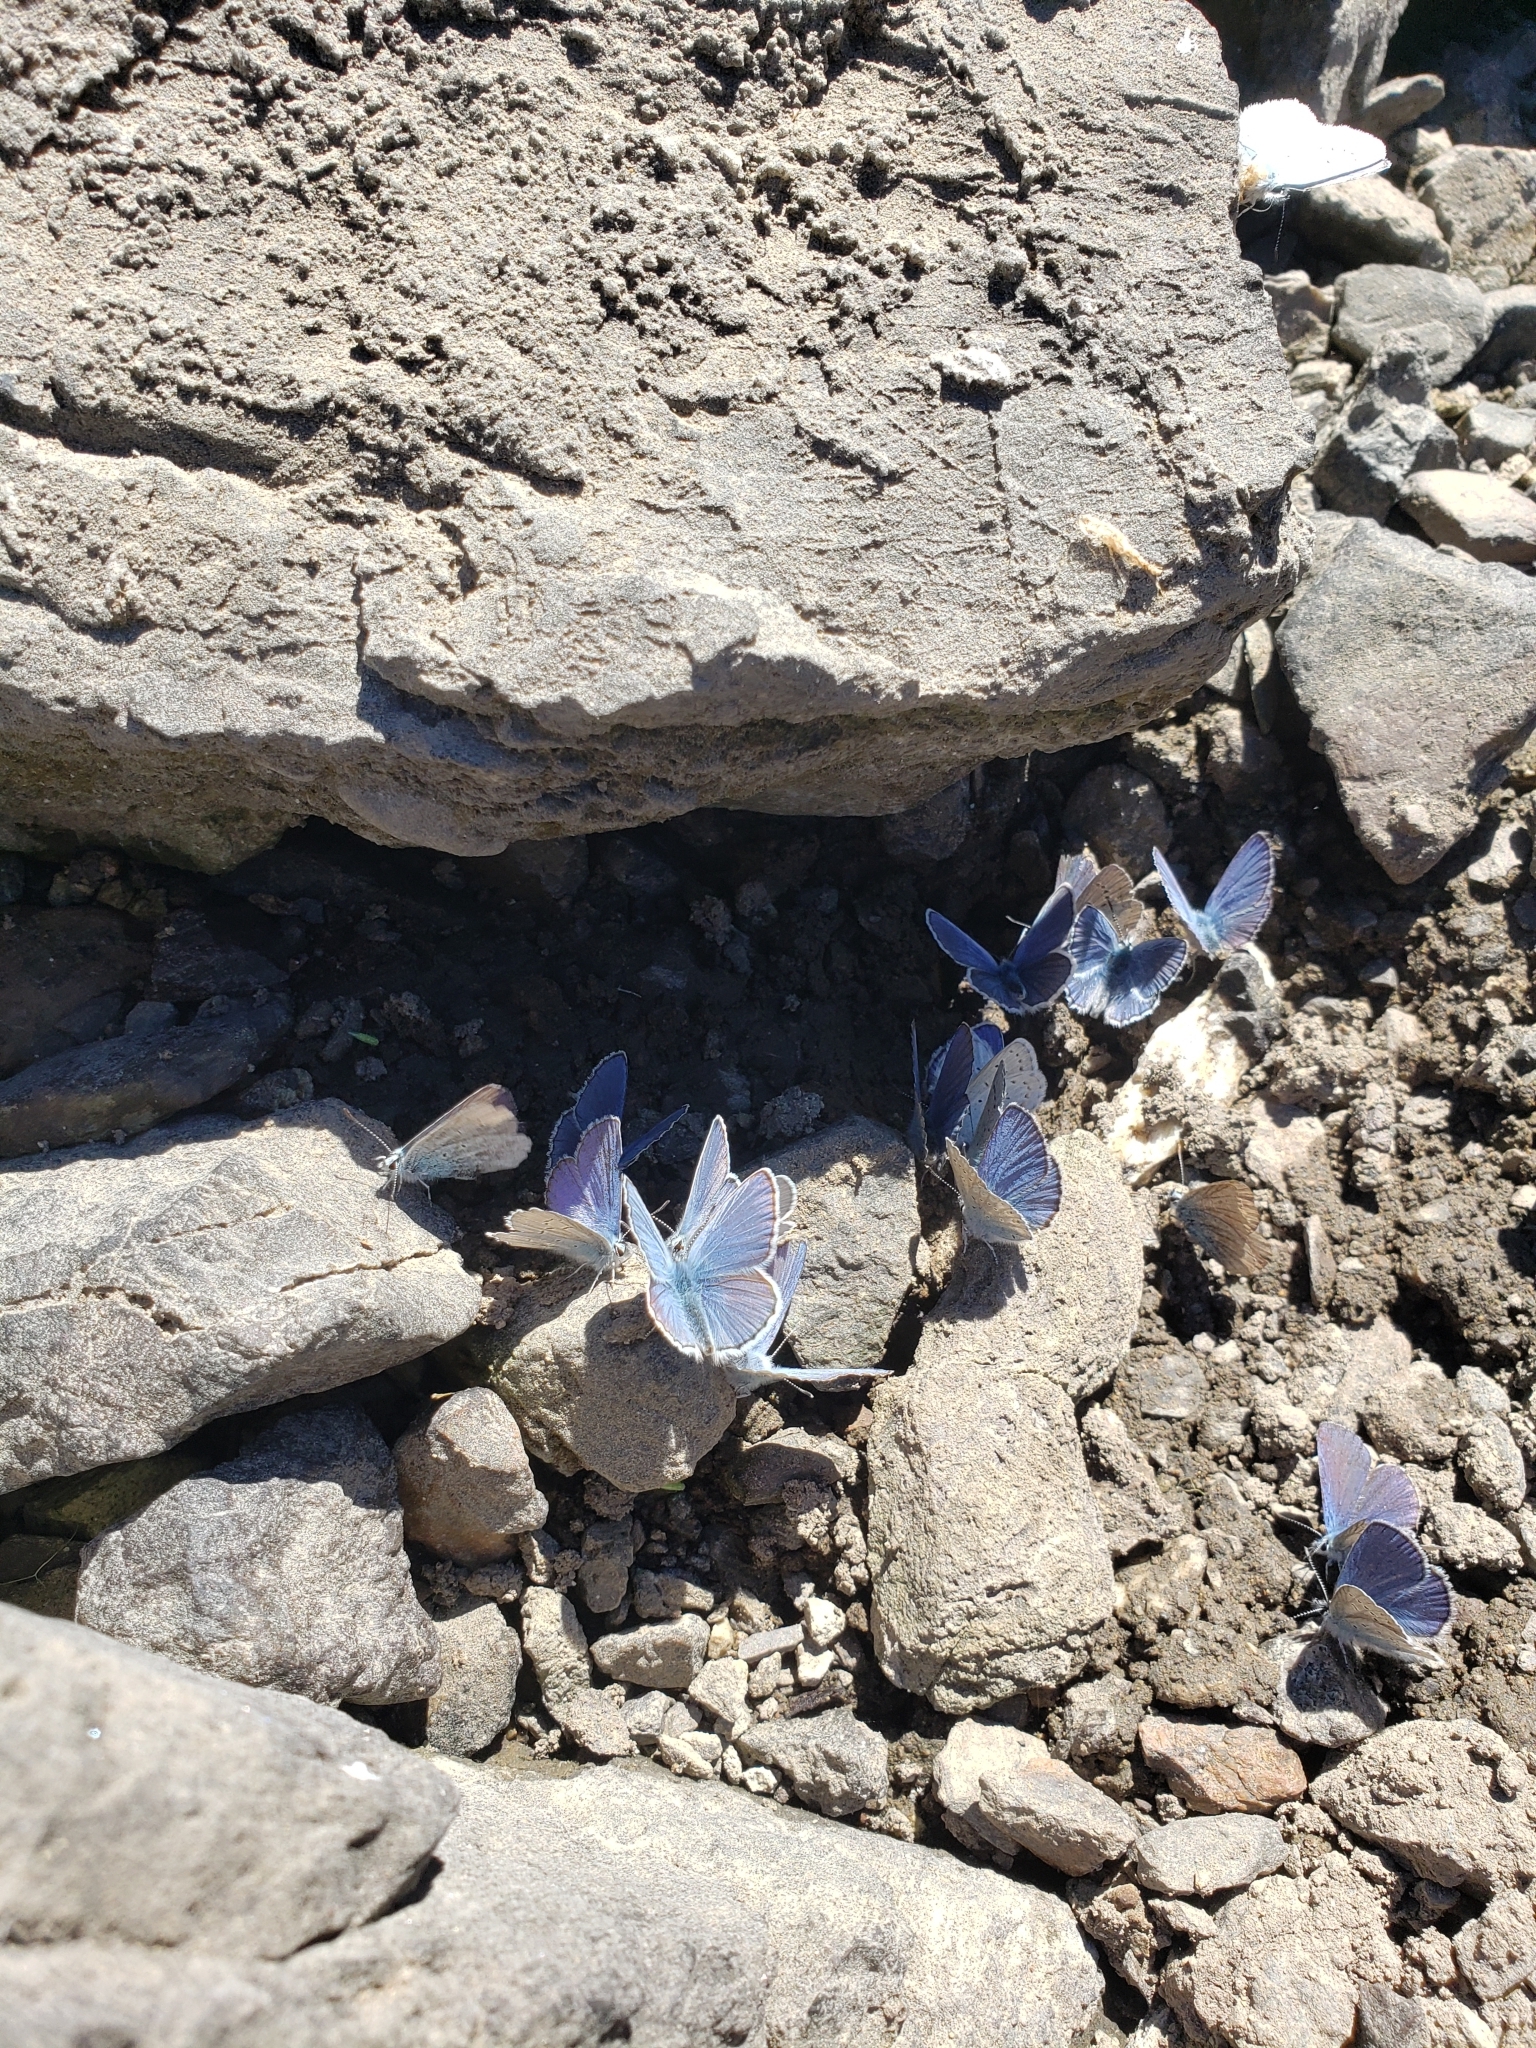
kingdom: Animalia
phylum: Arthropoda
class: Insecta
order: Lepidoptera
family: Lycaenidae
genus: Lycaeides
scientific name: Lycaeides anna
